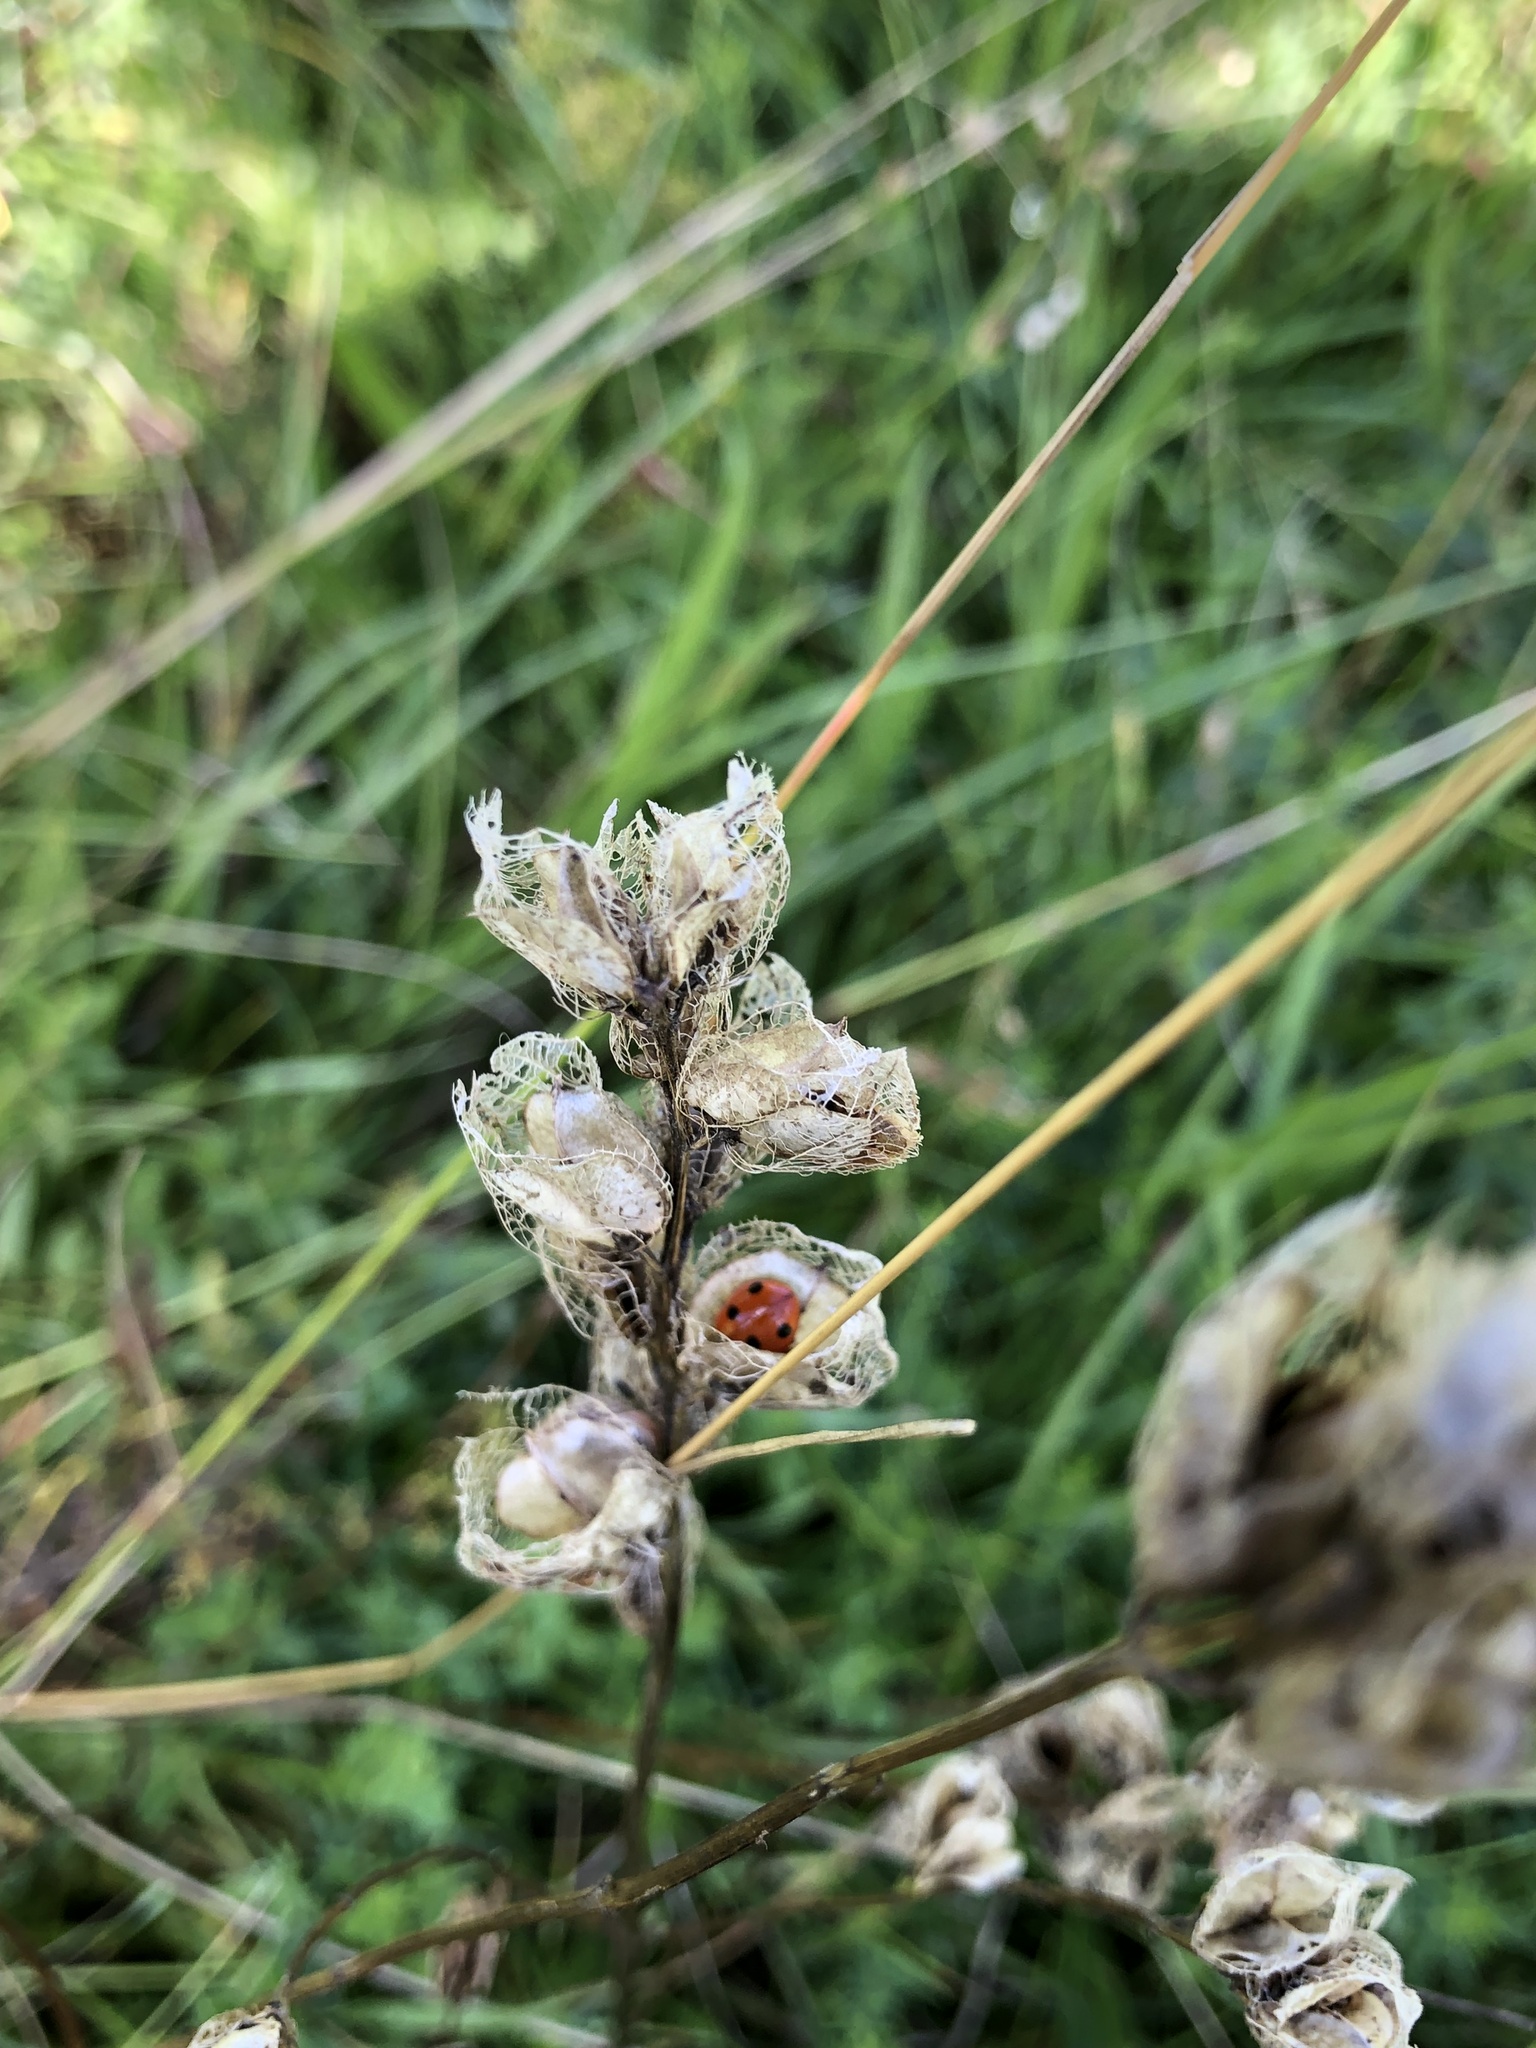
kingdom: Animalia
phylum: Arthropoda
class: Insecta
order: Coleoptera
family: Coccinellidae
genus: Coccinella
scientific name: Coccinella septempunctata
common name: Sevenspotted lady beetle
